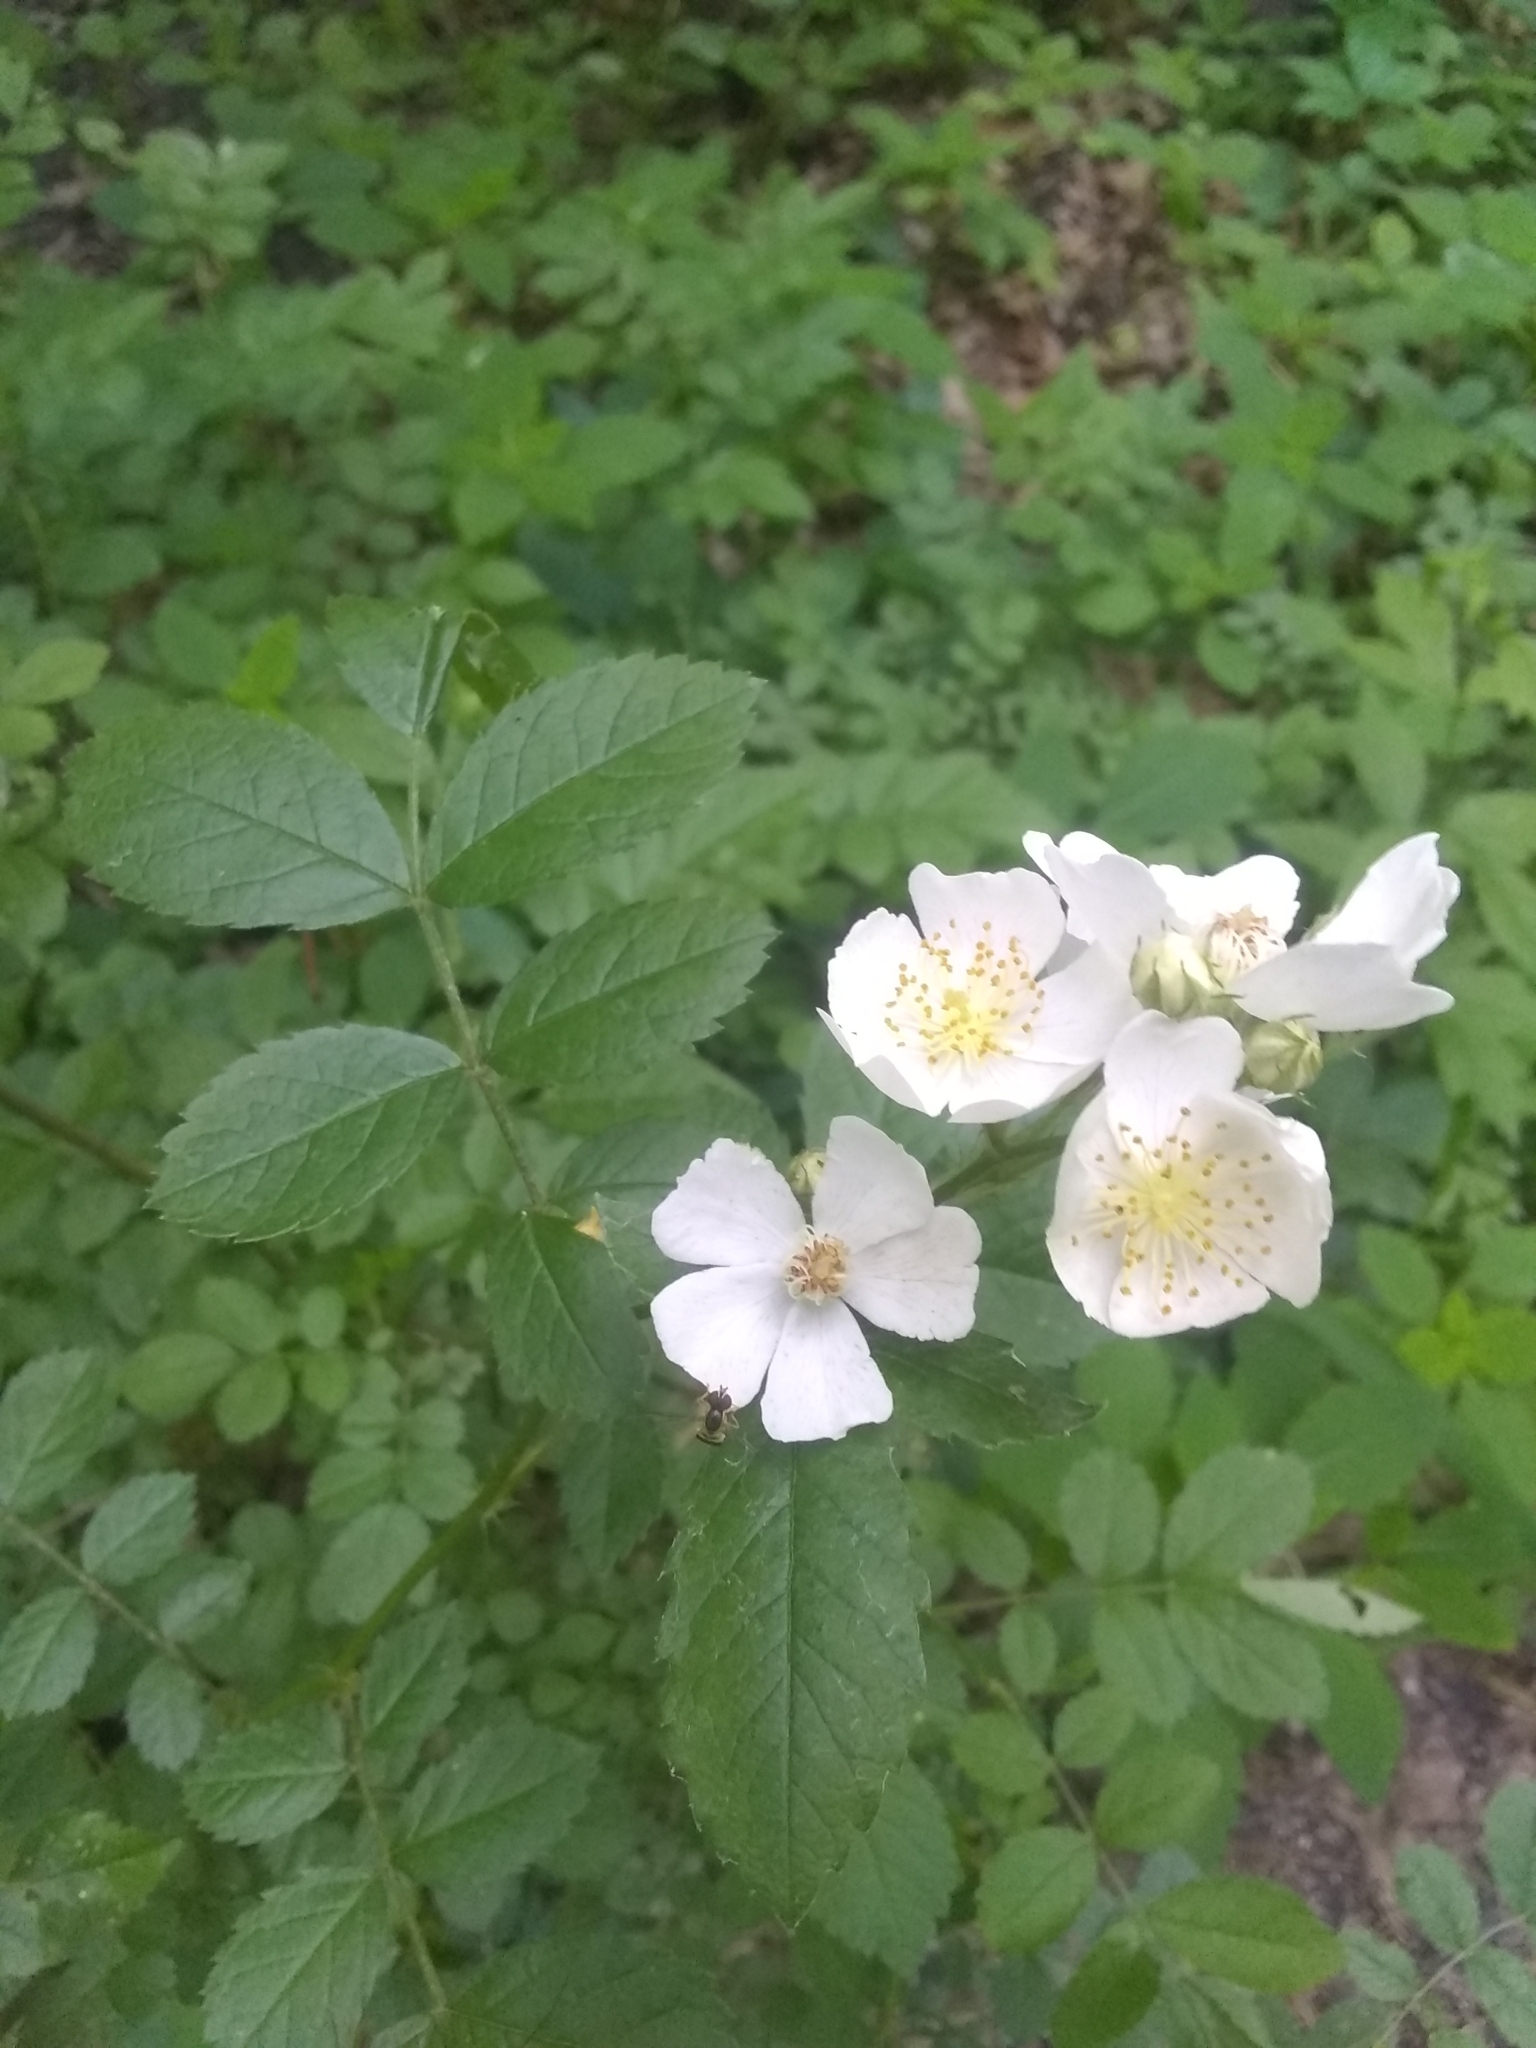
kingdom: Plantae
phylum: Tracheophyta
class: Magnoliopsida
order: Rosales
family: Rosaceae
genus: Rosa
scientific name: Rosa multiflora
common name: Multiflora rose
